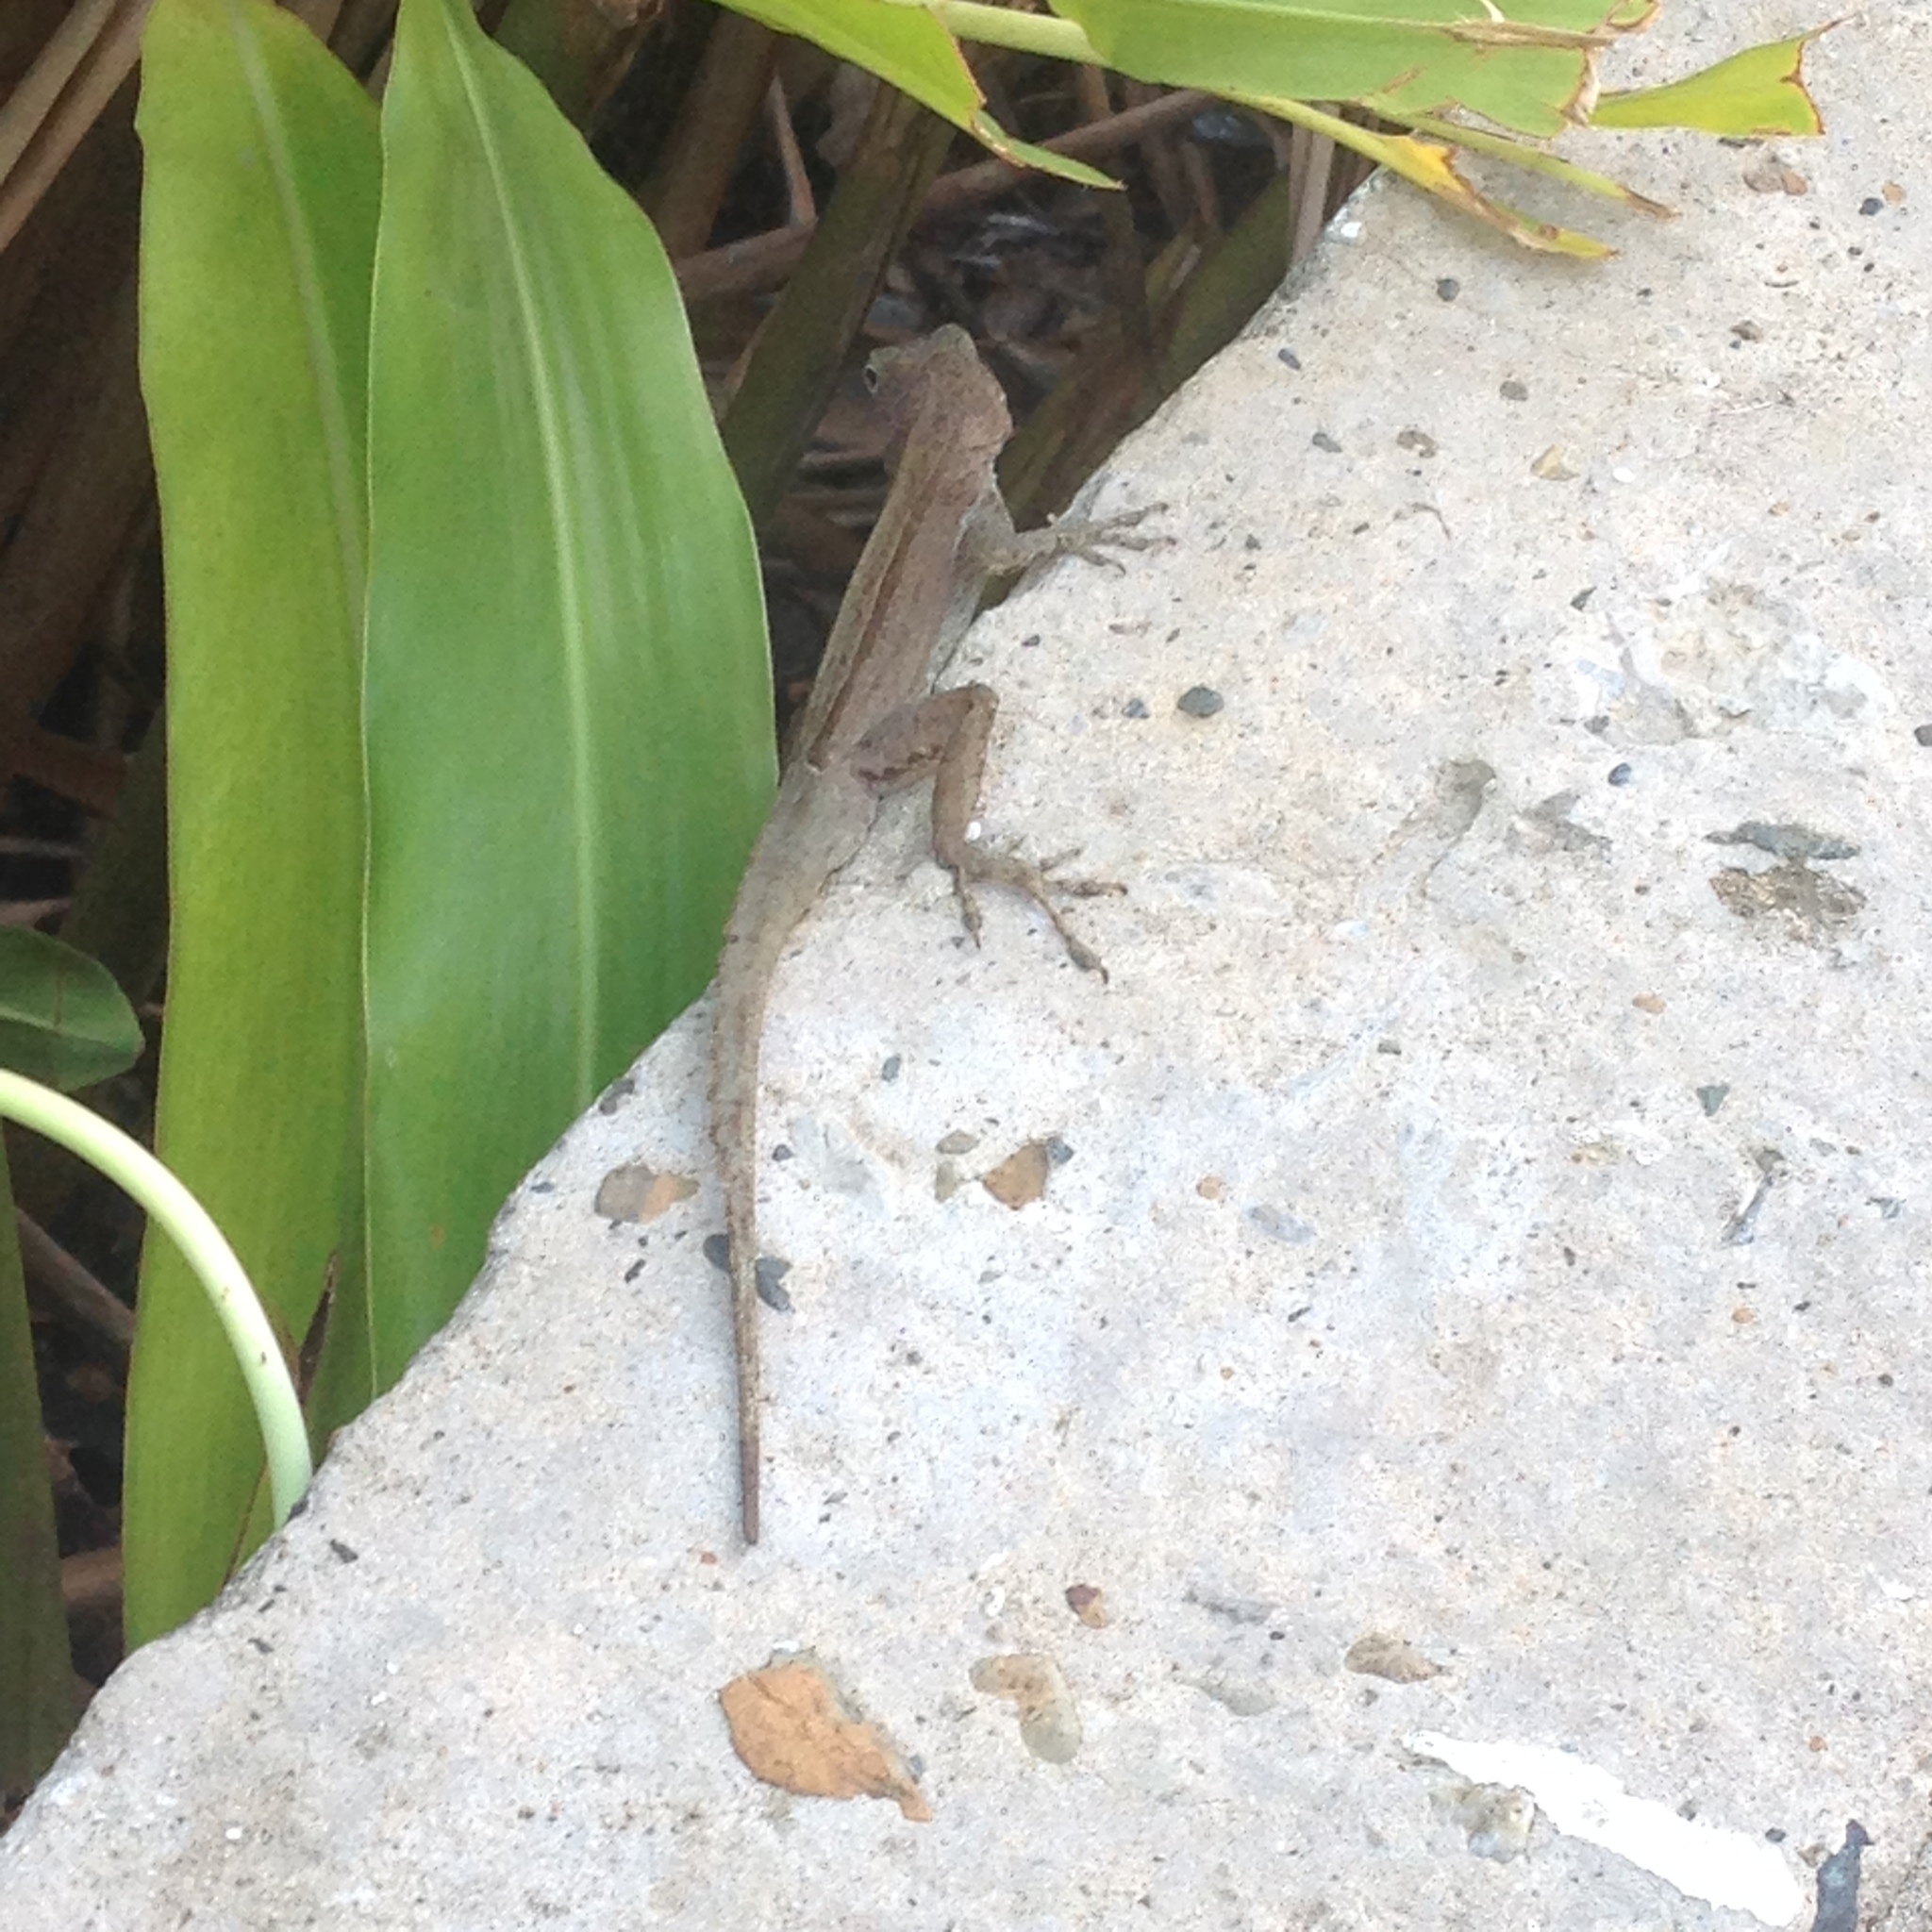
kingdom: Animalia
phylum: Chordata
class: Squamata
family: Dactyloidae
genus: Anolis
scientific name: Anolis cristatellus
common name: Crested anole
